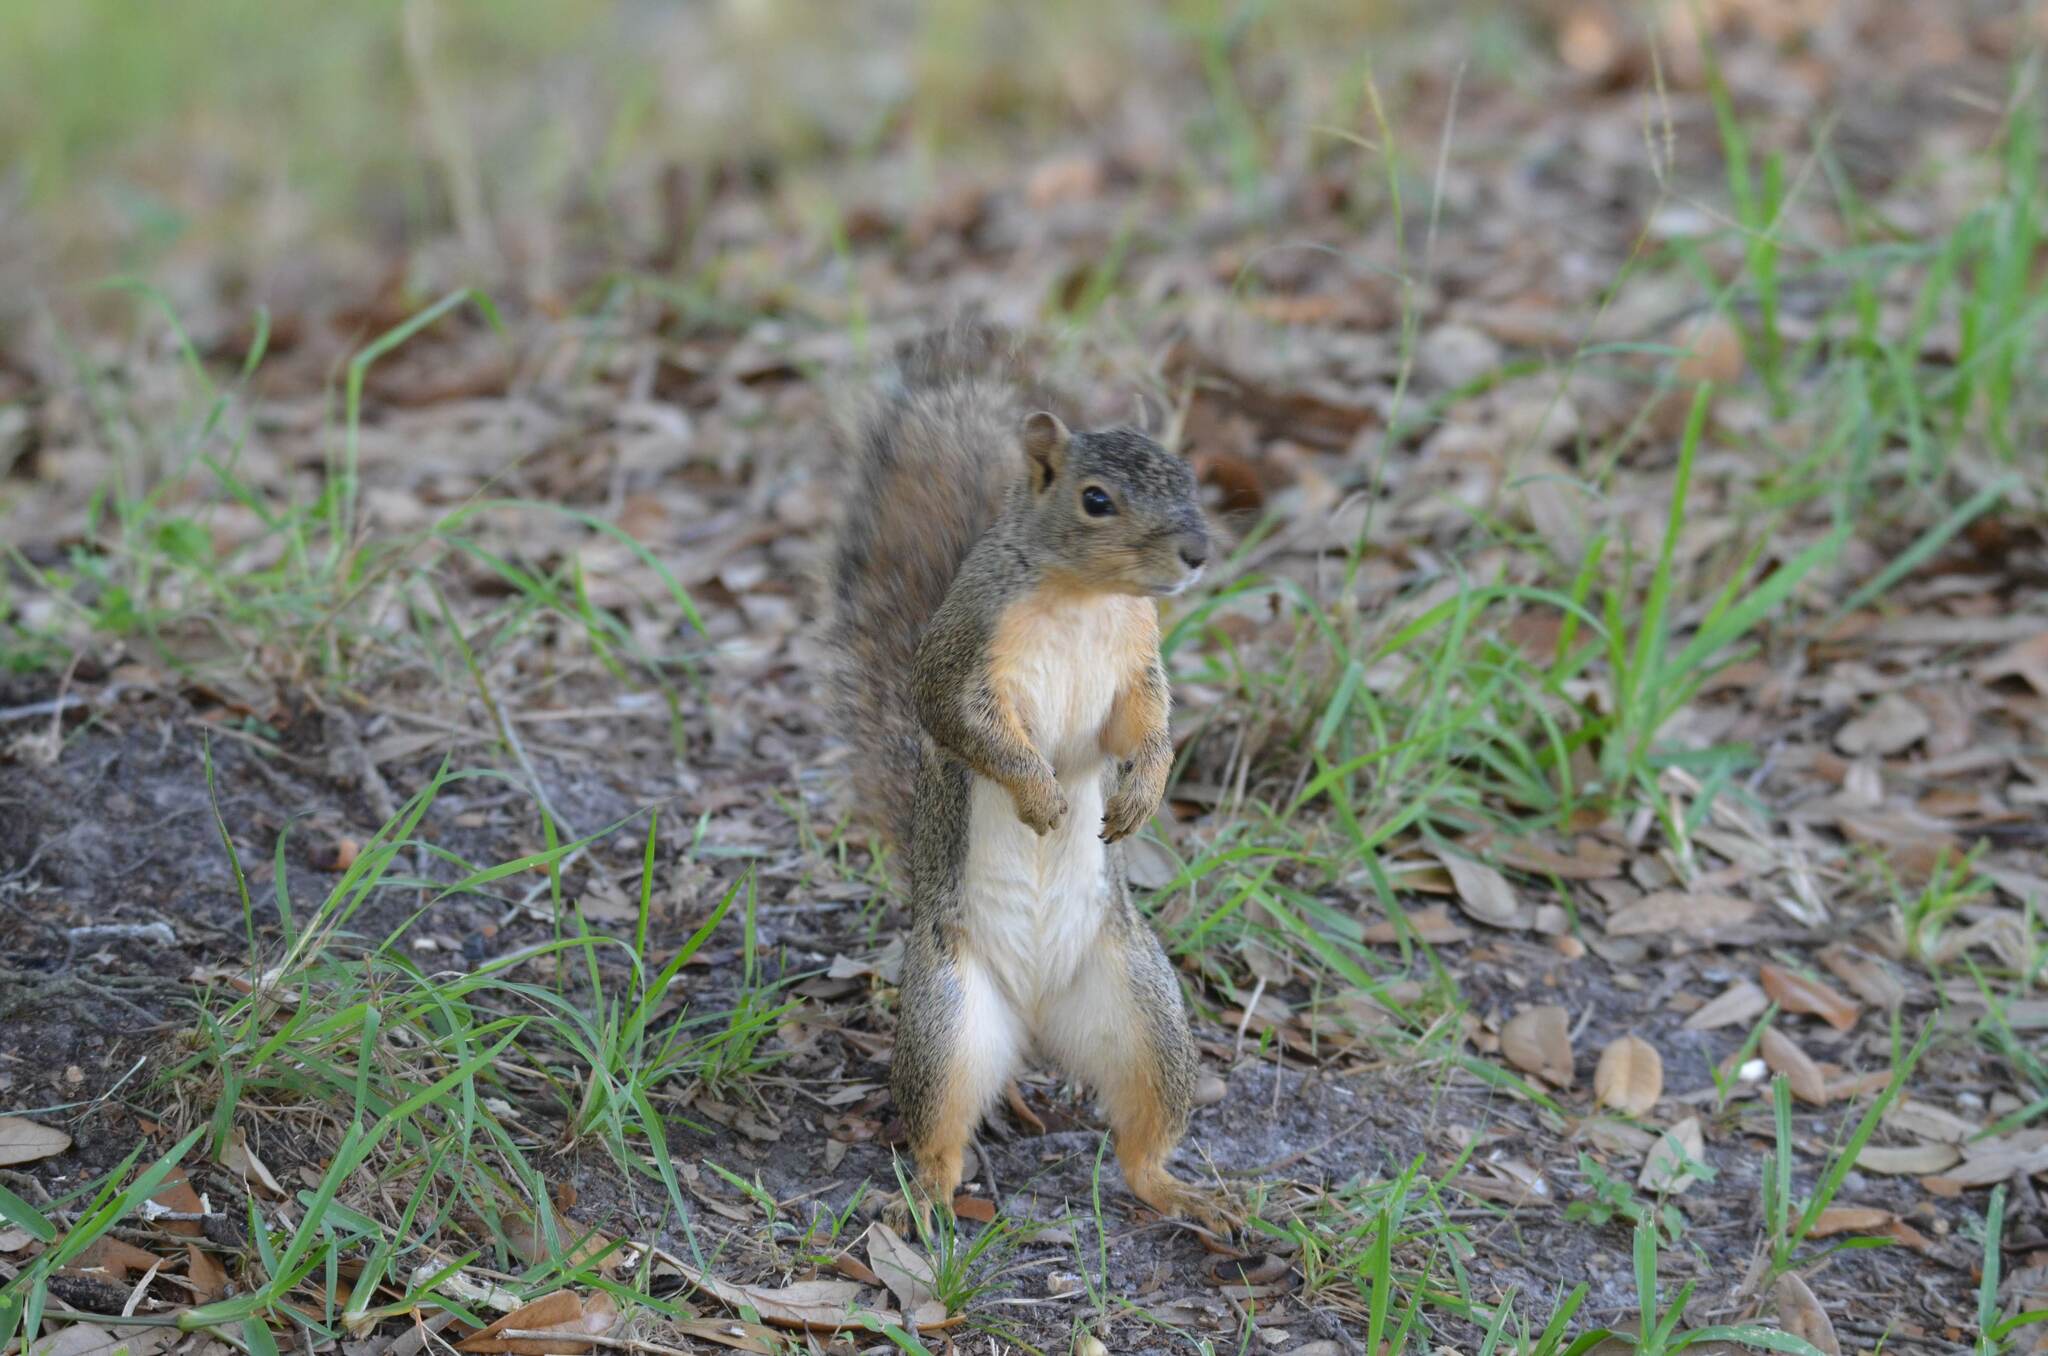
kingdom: Animalia
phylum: Chordata
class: Mammalia
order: Rodentia
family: Sciuridae
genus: Sciurus
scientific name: Sciurus niger
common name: Fox squirrel
